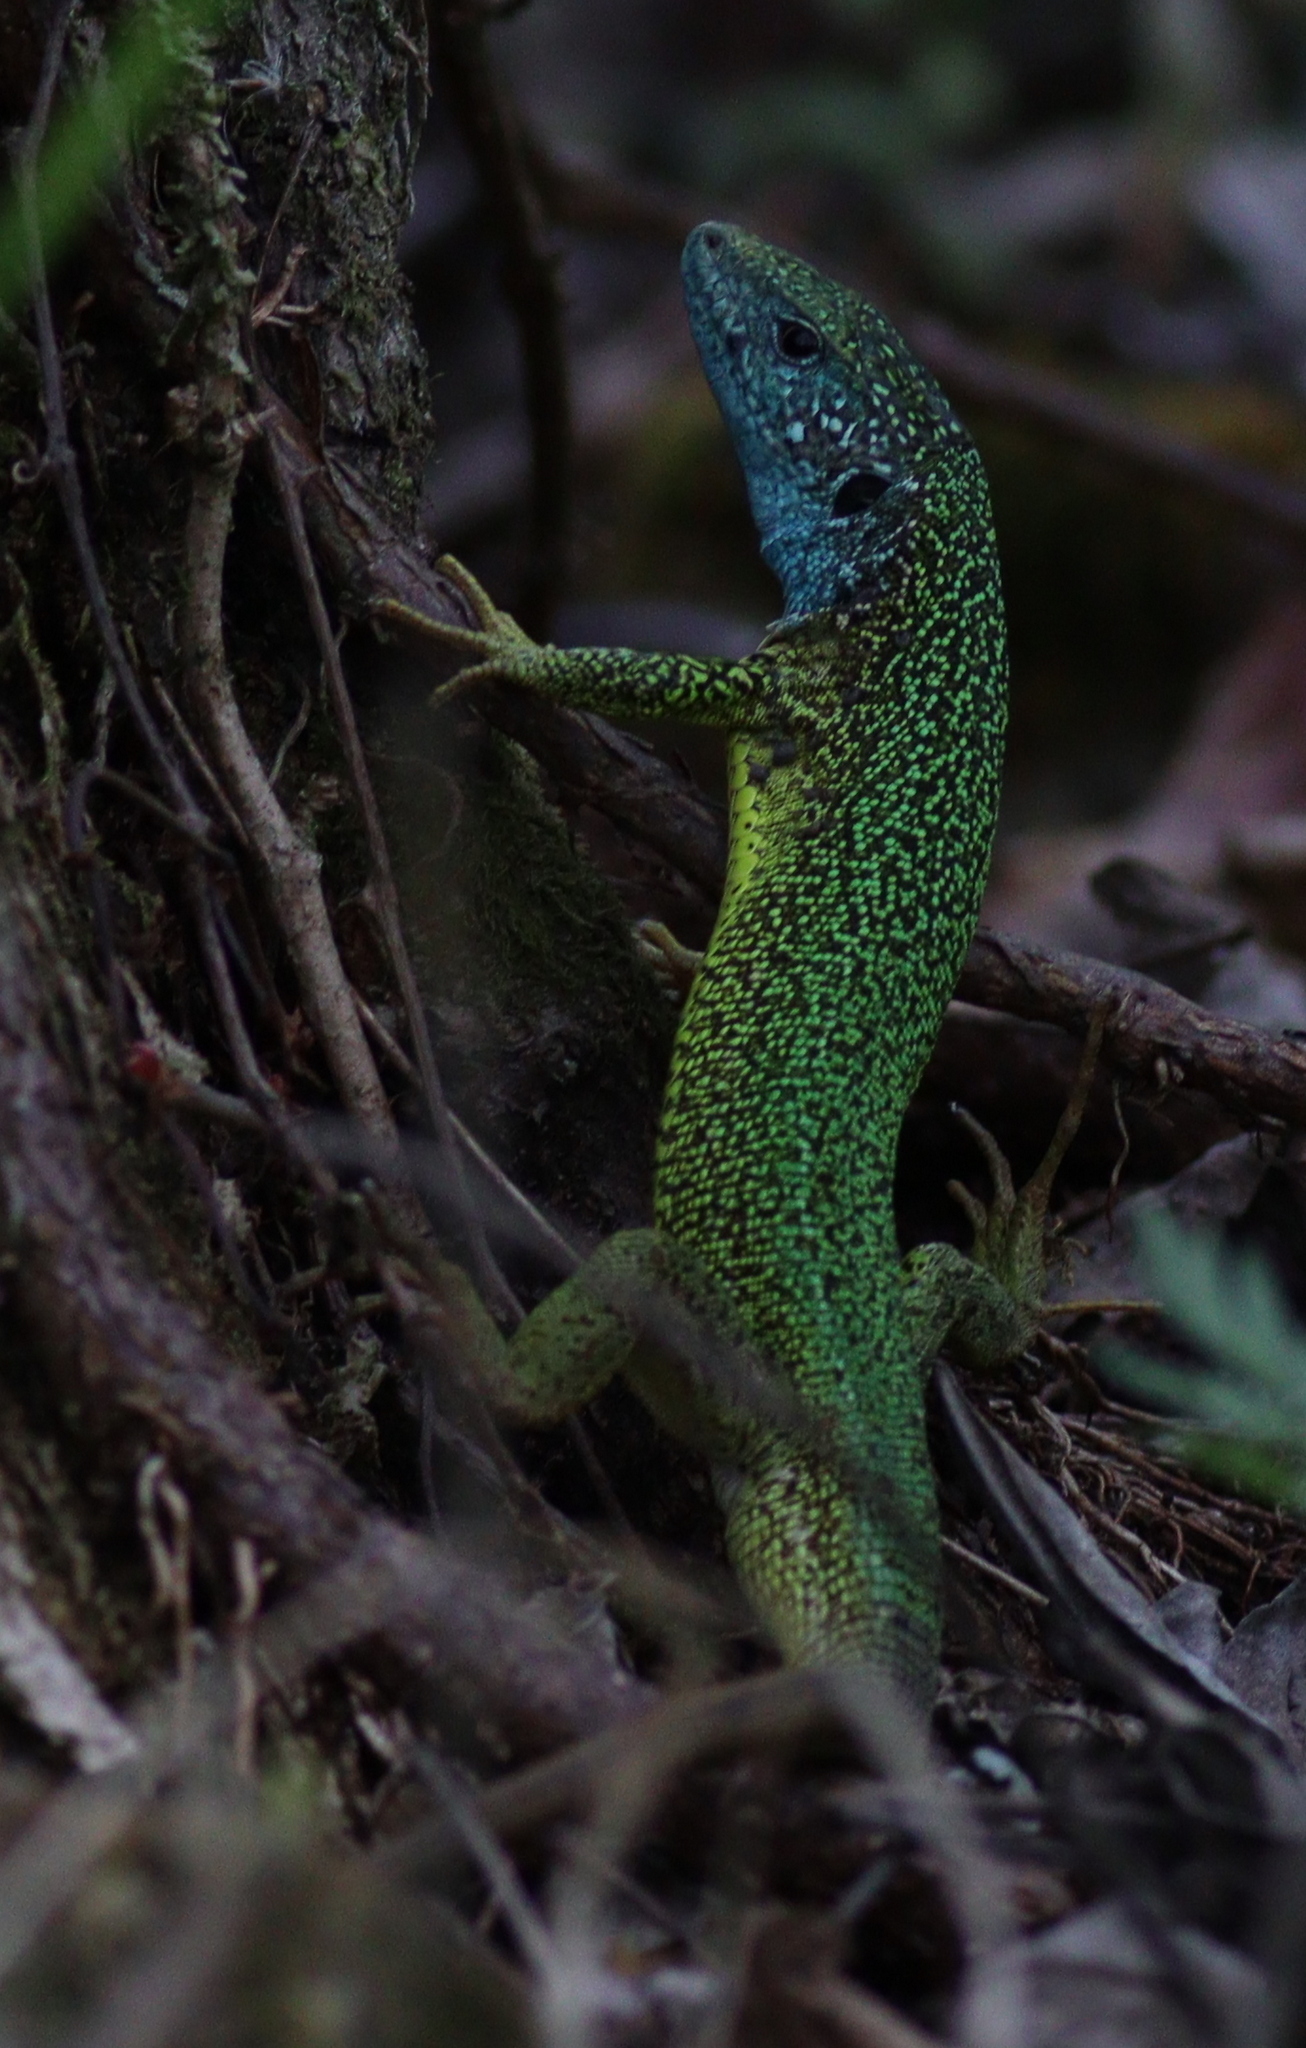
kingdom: Animalia
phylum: Chordata
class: Squamata
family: Lacertidae
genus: Lacerta
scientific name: Lacerta viridis
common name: European green lizard
